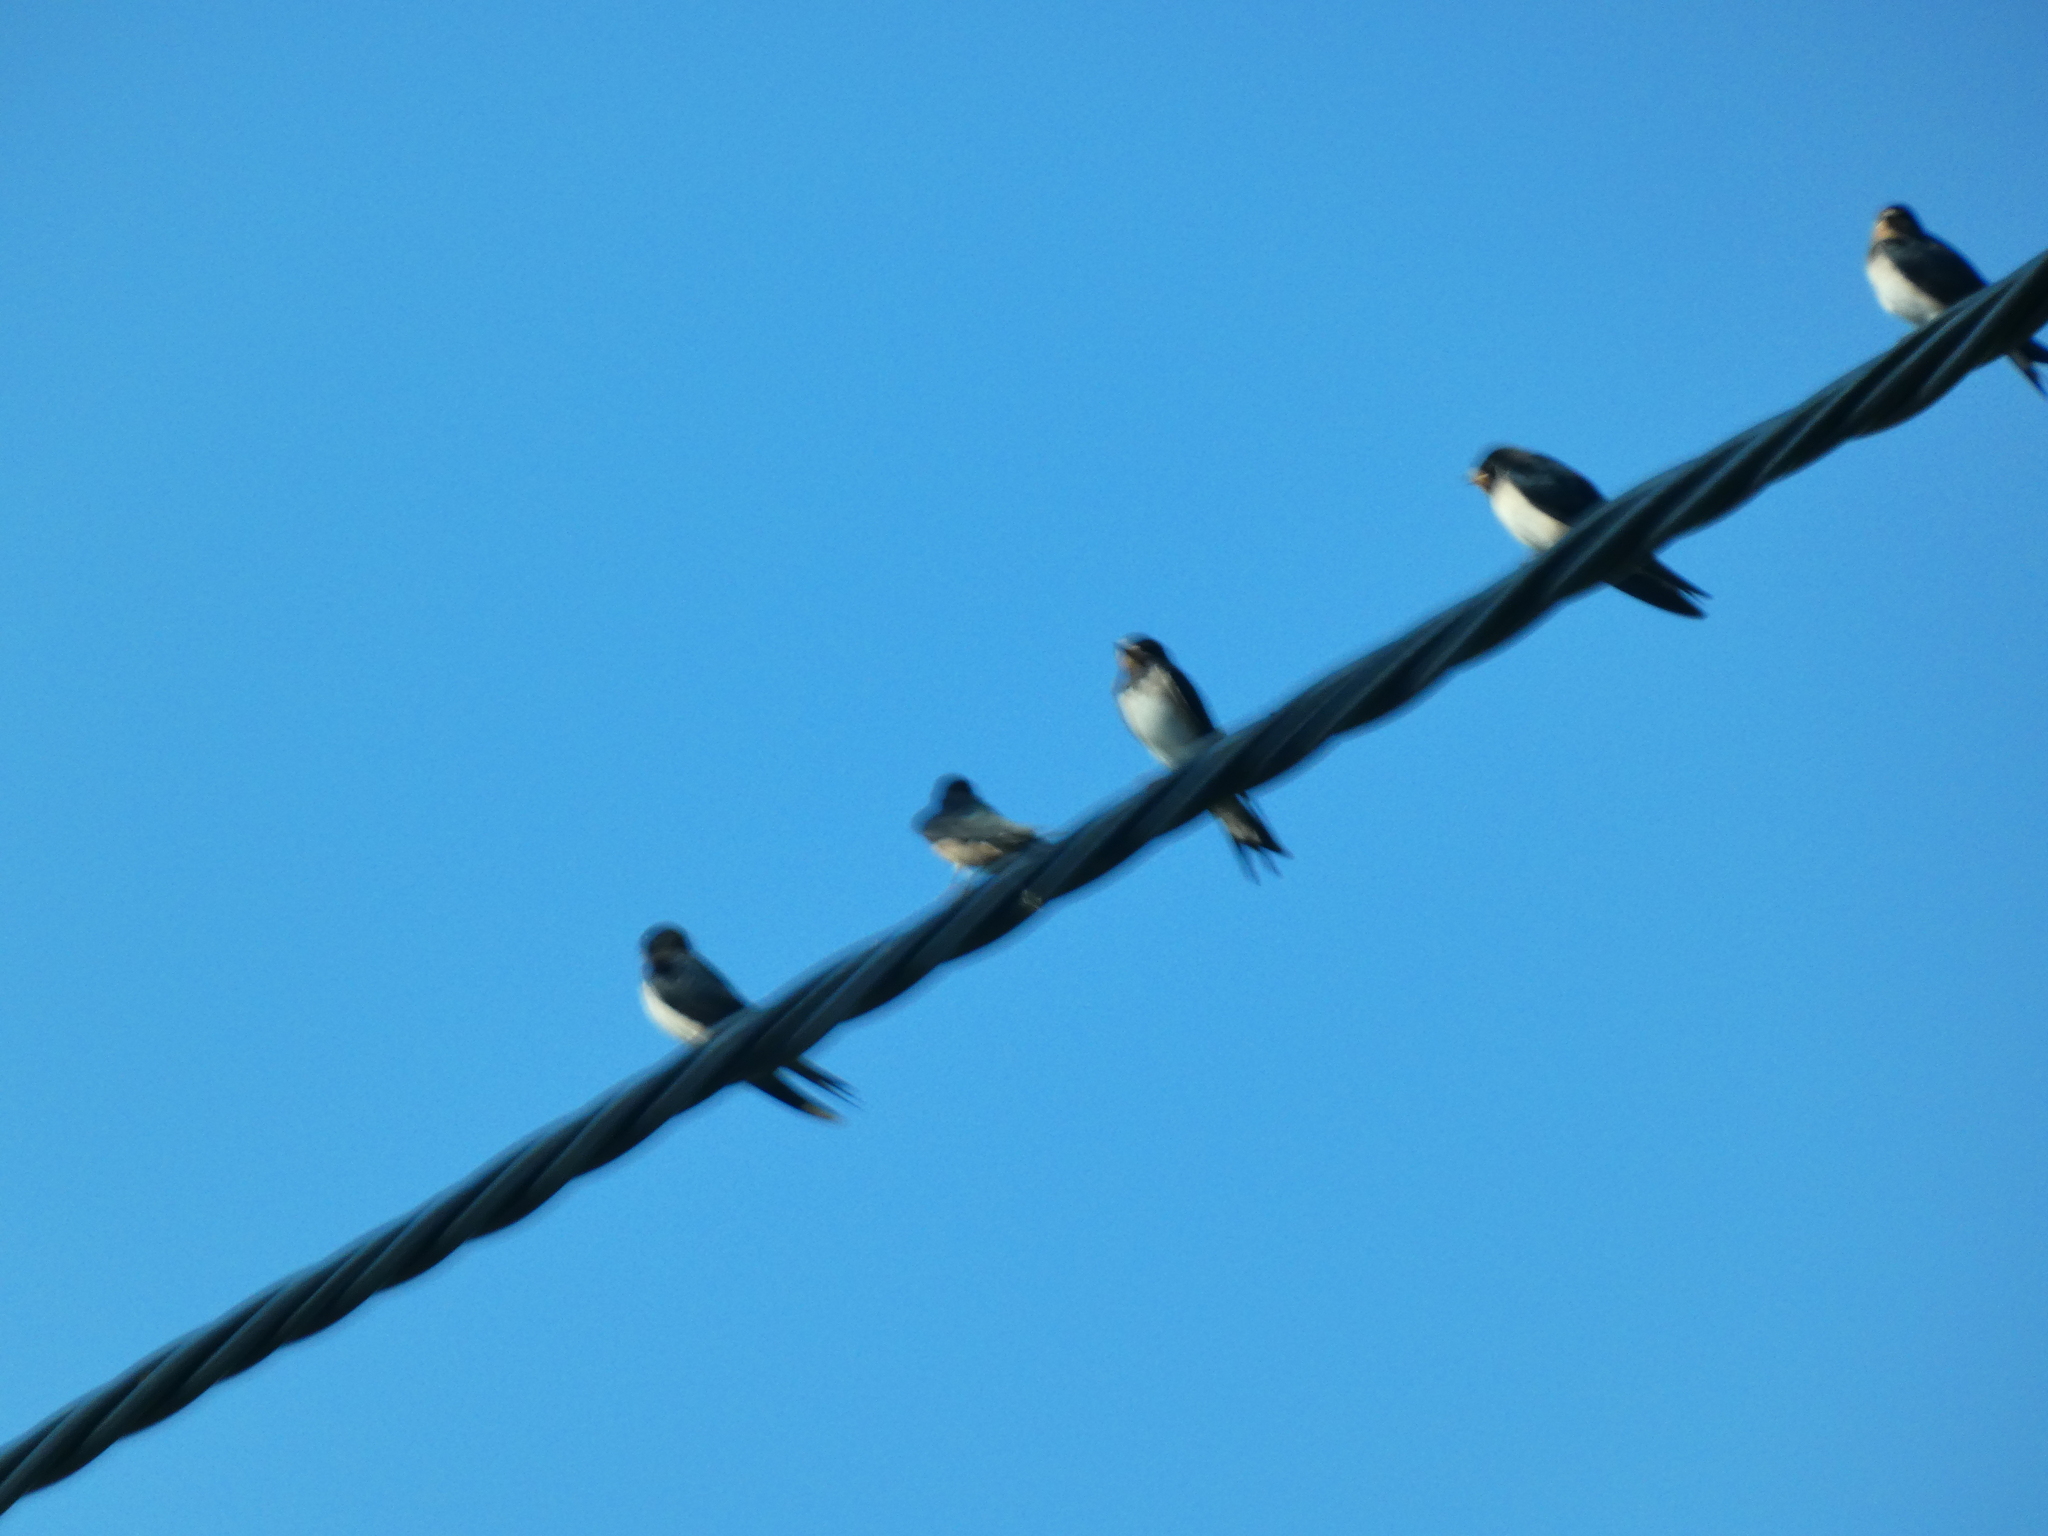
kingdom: Animalia
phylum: Chordata
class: Aves
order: Passeriformes
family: Hirundinidae
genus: Hirundo
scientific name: Hirundo rustica
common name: Barn swallow
